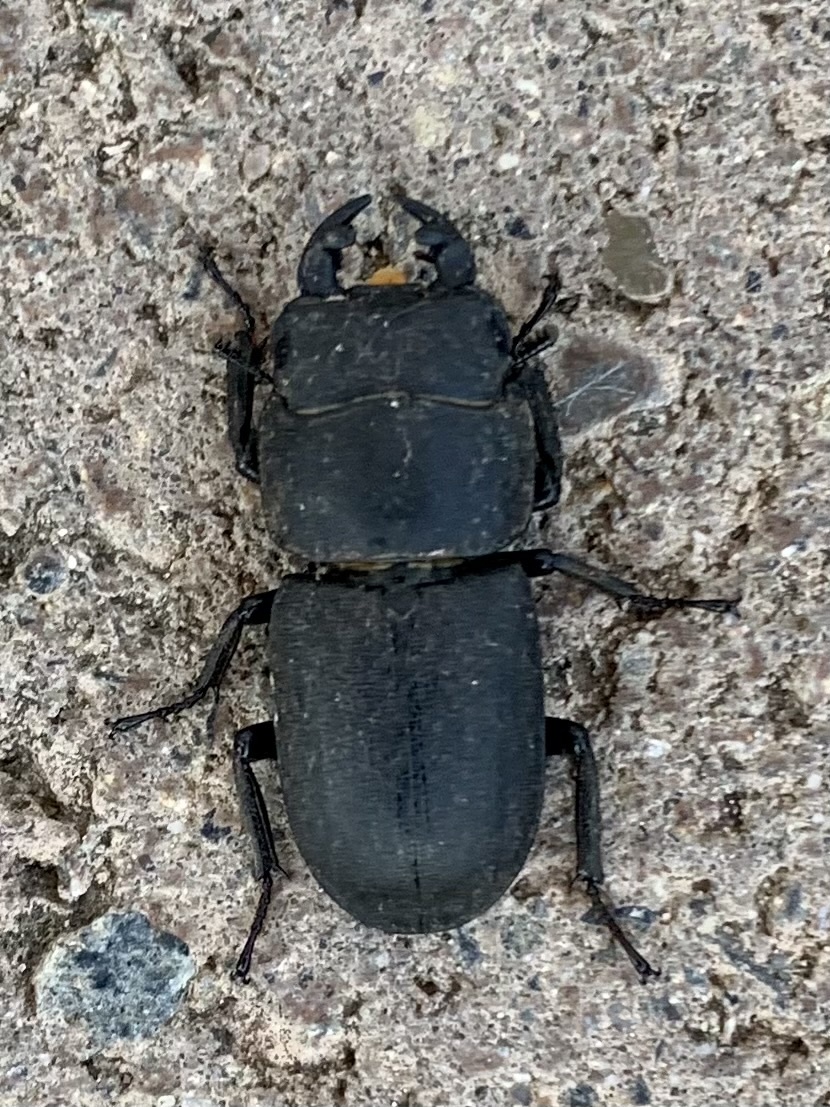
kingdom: Animalia
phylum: Arthropoda
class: Insecta
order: Coleoptera
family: Lucanidae
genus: Dorcus
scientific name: Dorcus parallelipipedus
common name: Lesser stag beetle
